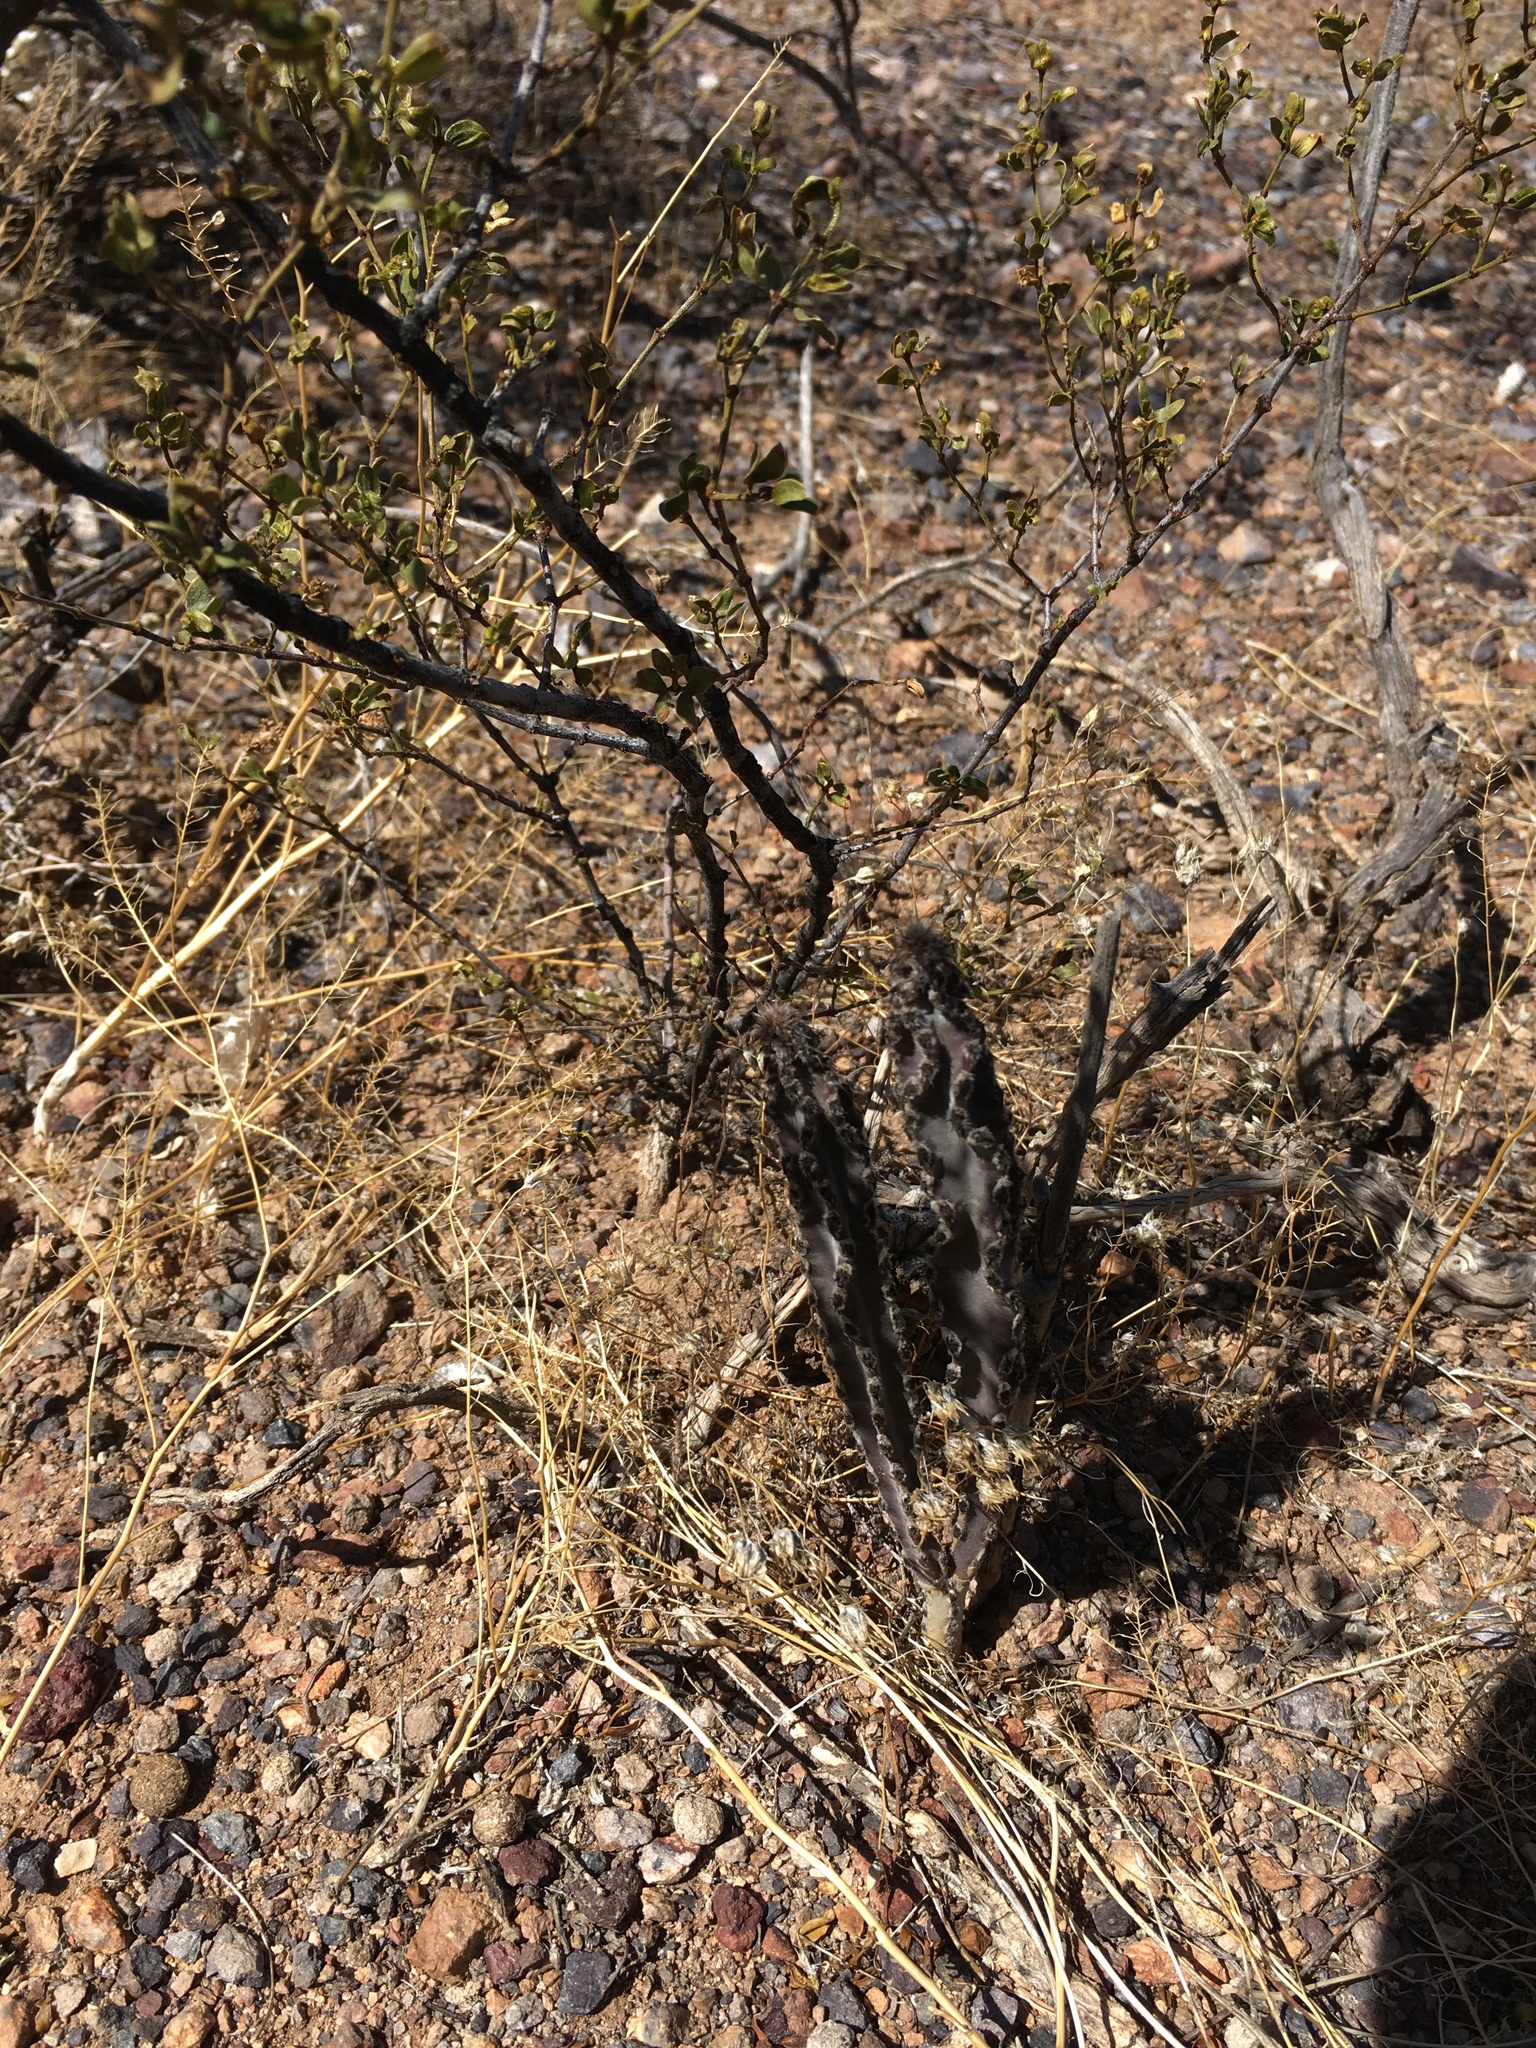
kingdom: Plantae
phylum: Tracheophyta
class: Magnoliopsida
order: Caryophyllales
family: Cactaceae
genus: Peniocereus
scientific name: Peniocereus greggii
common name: Desert night-blooming cereus
